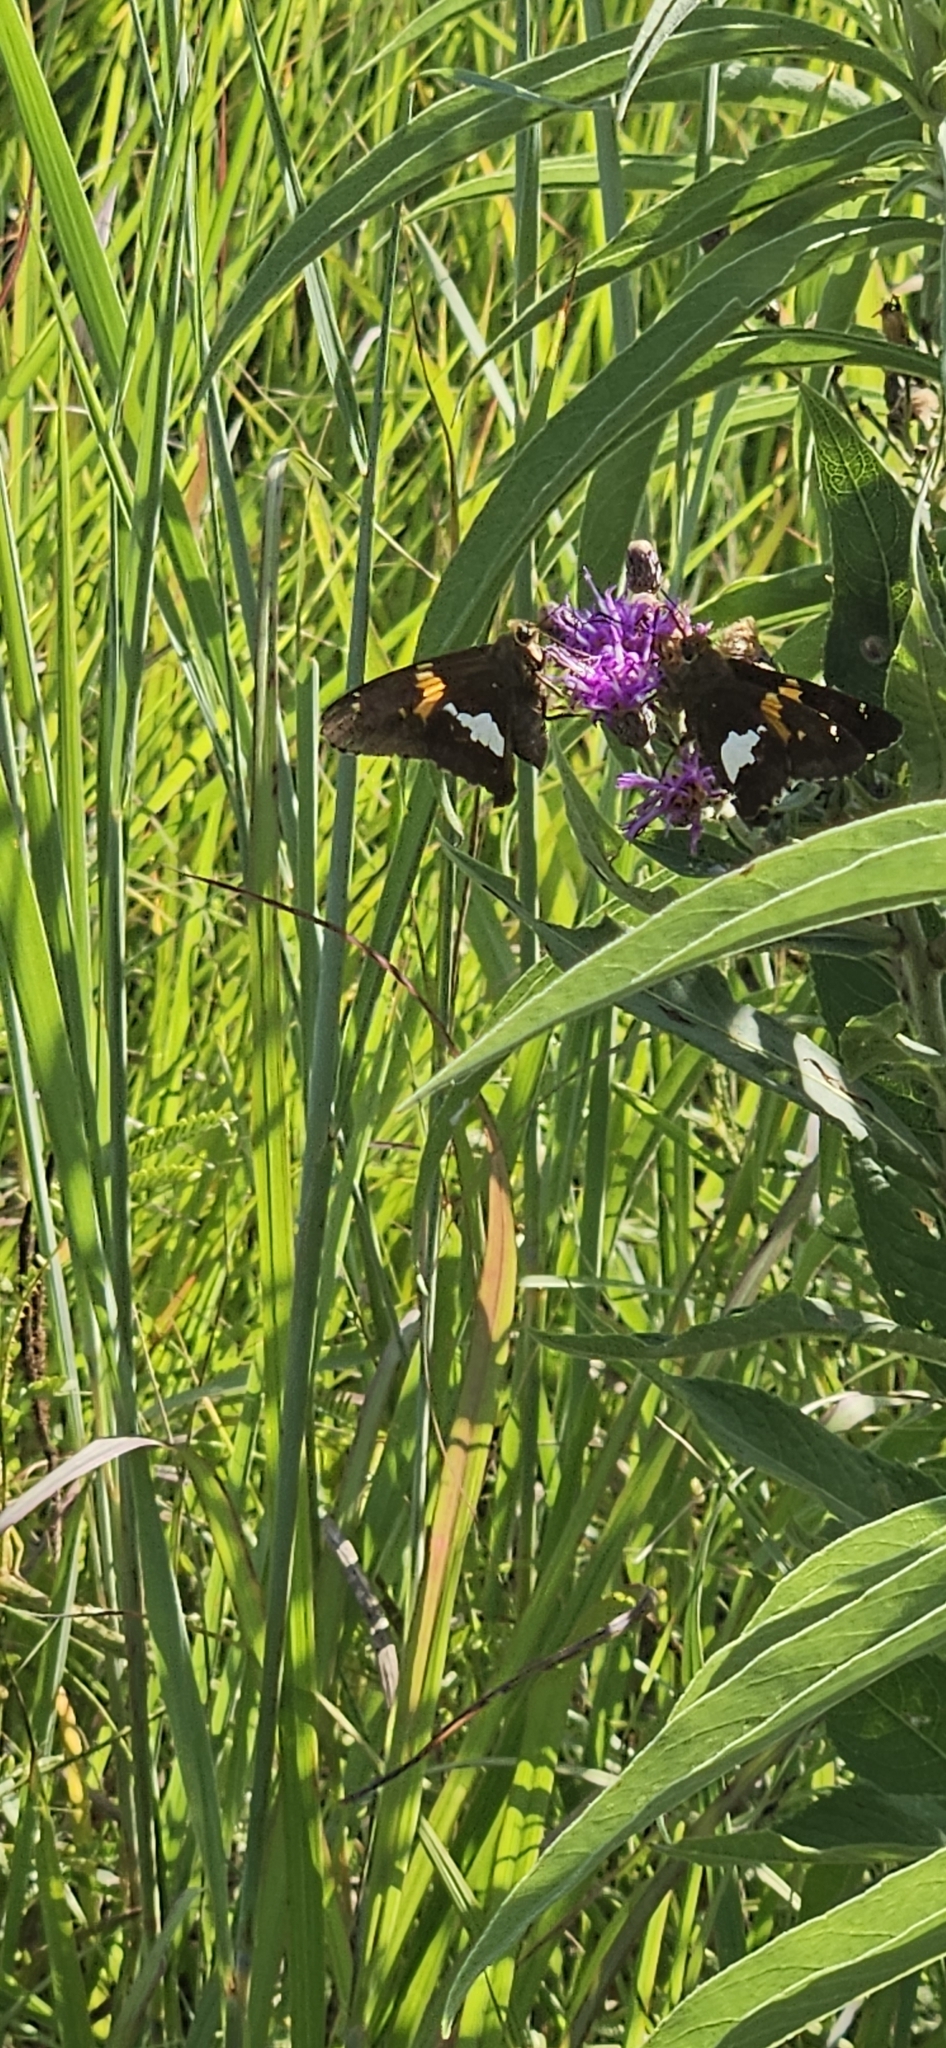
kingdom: Animalia
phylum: Arthropoda
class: Insecta
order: Lepidoptera
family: Hesperiidae
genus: Epargyreus
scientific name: Epargyreus clarus
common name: Silver-spotted skipper
